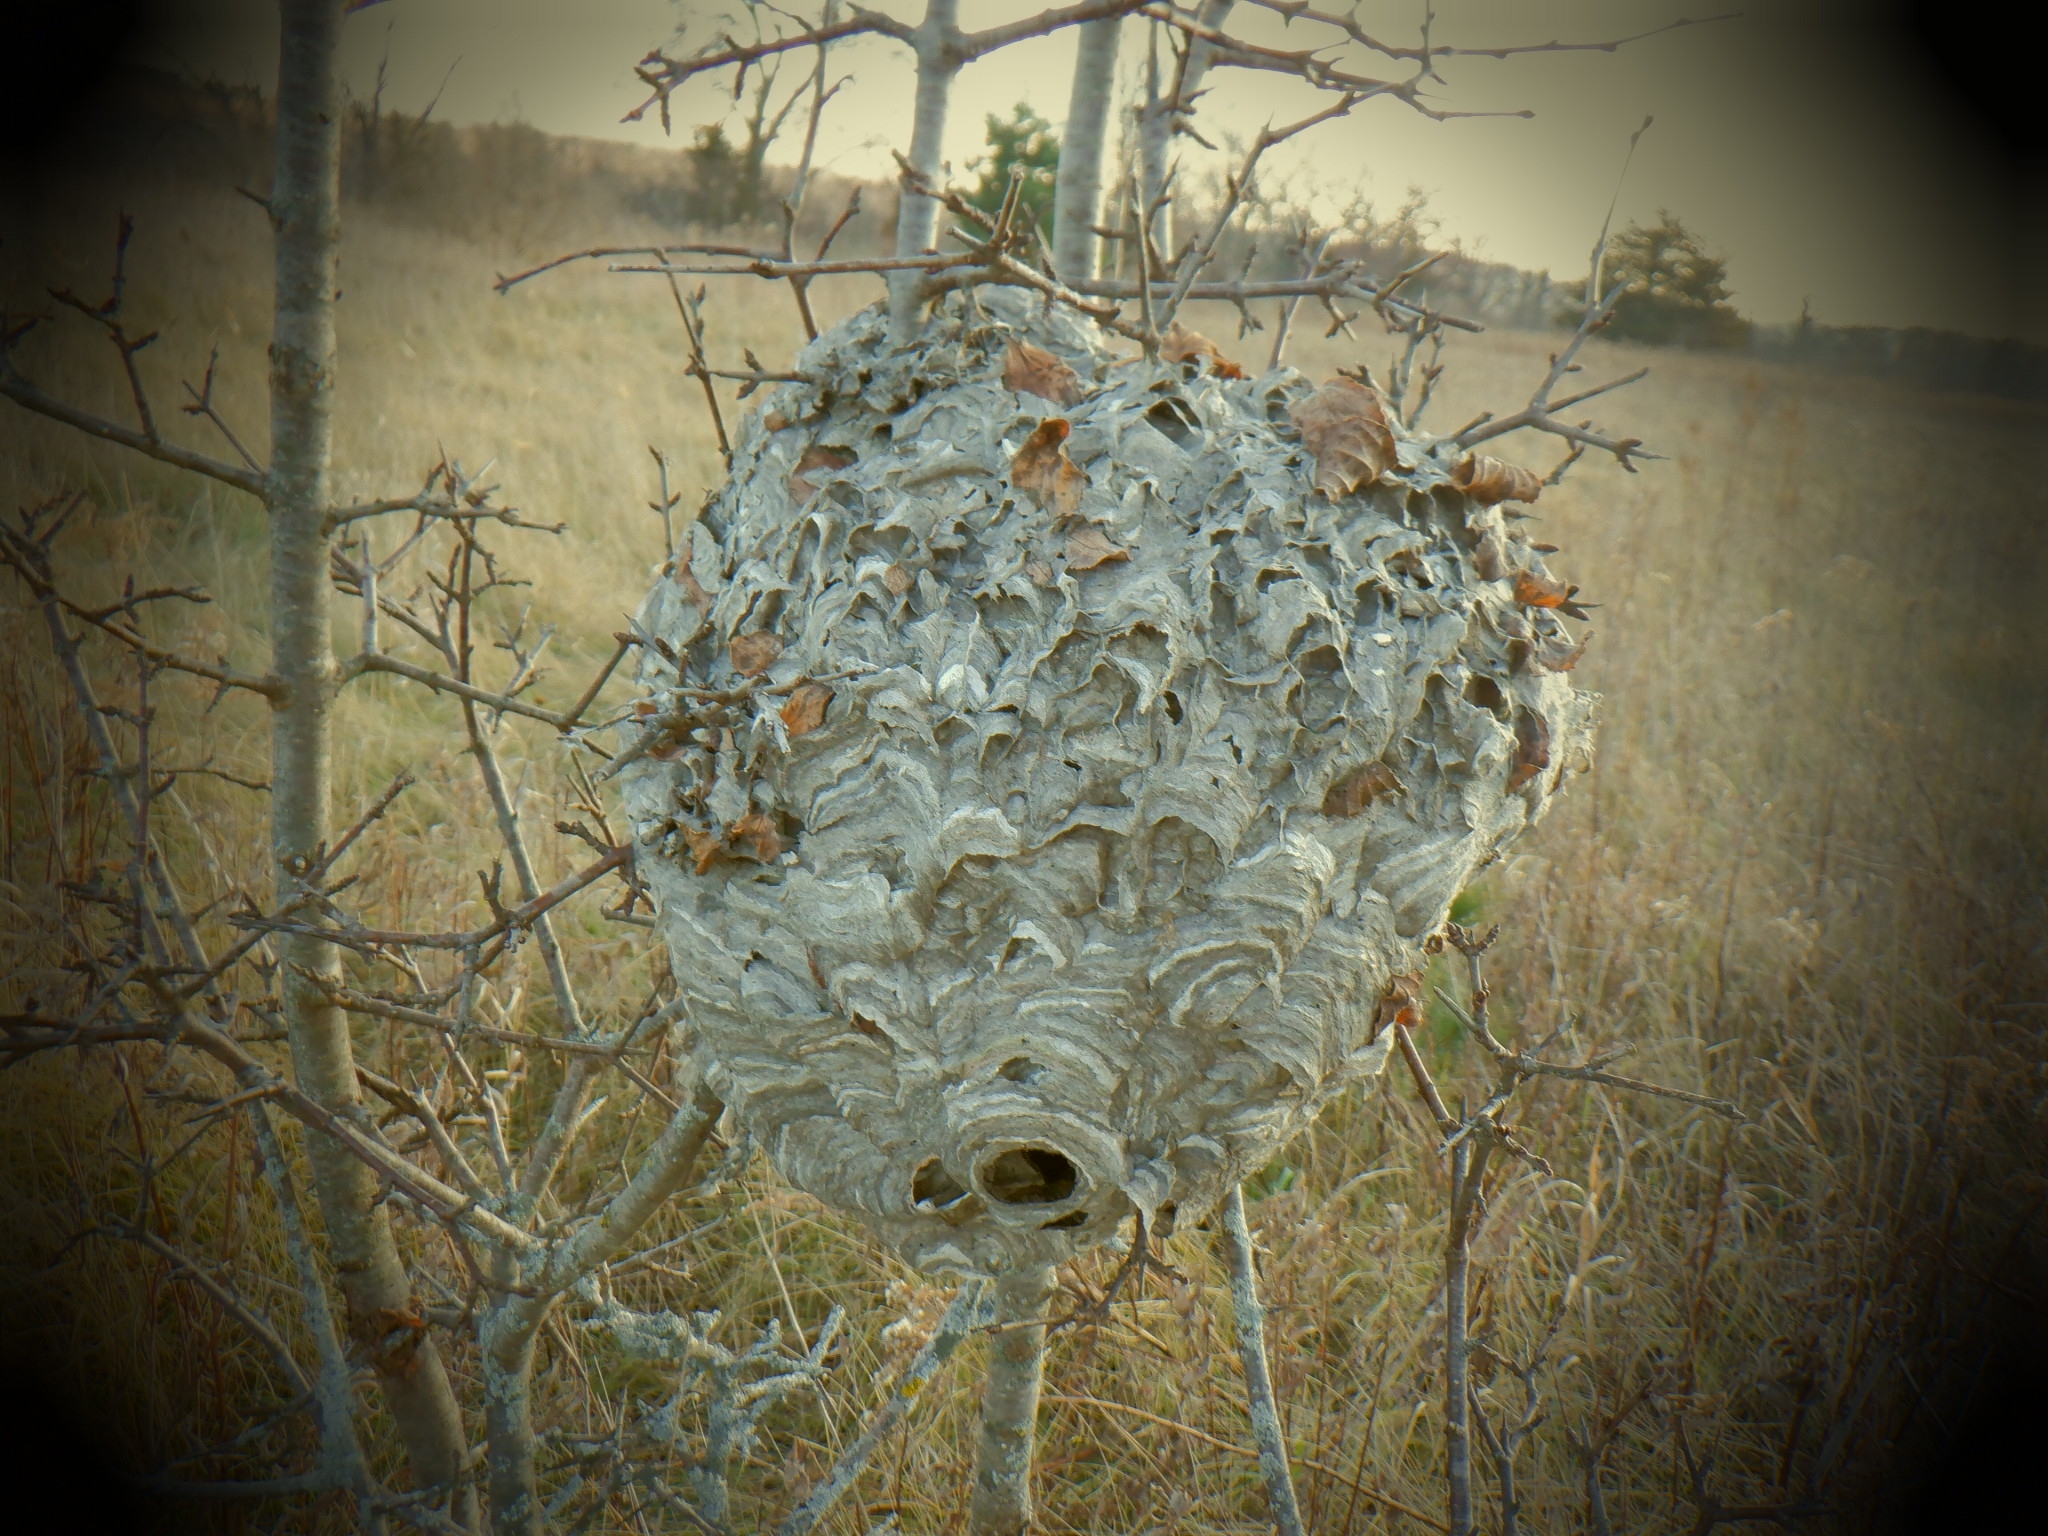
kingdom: Animalia
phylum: Arthropoda
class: Insecta
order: Hymenoptera
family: Vespidae
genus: Dolichovespula
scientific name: Dolichovespula maculata
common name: Bald-faced hornet
